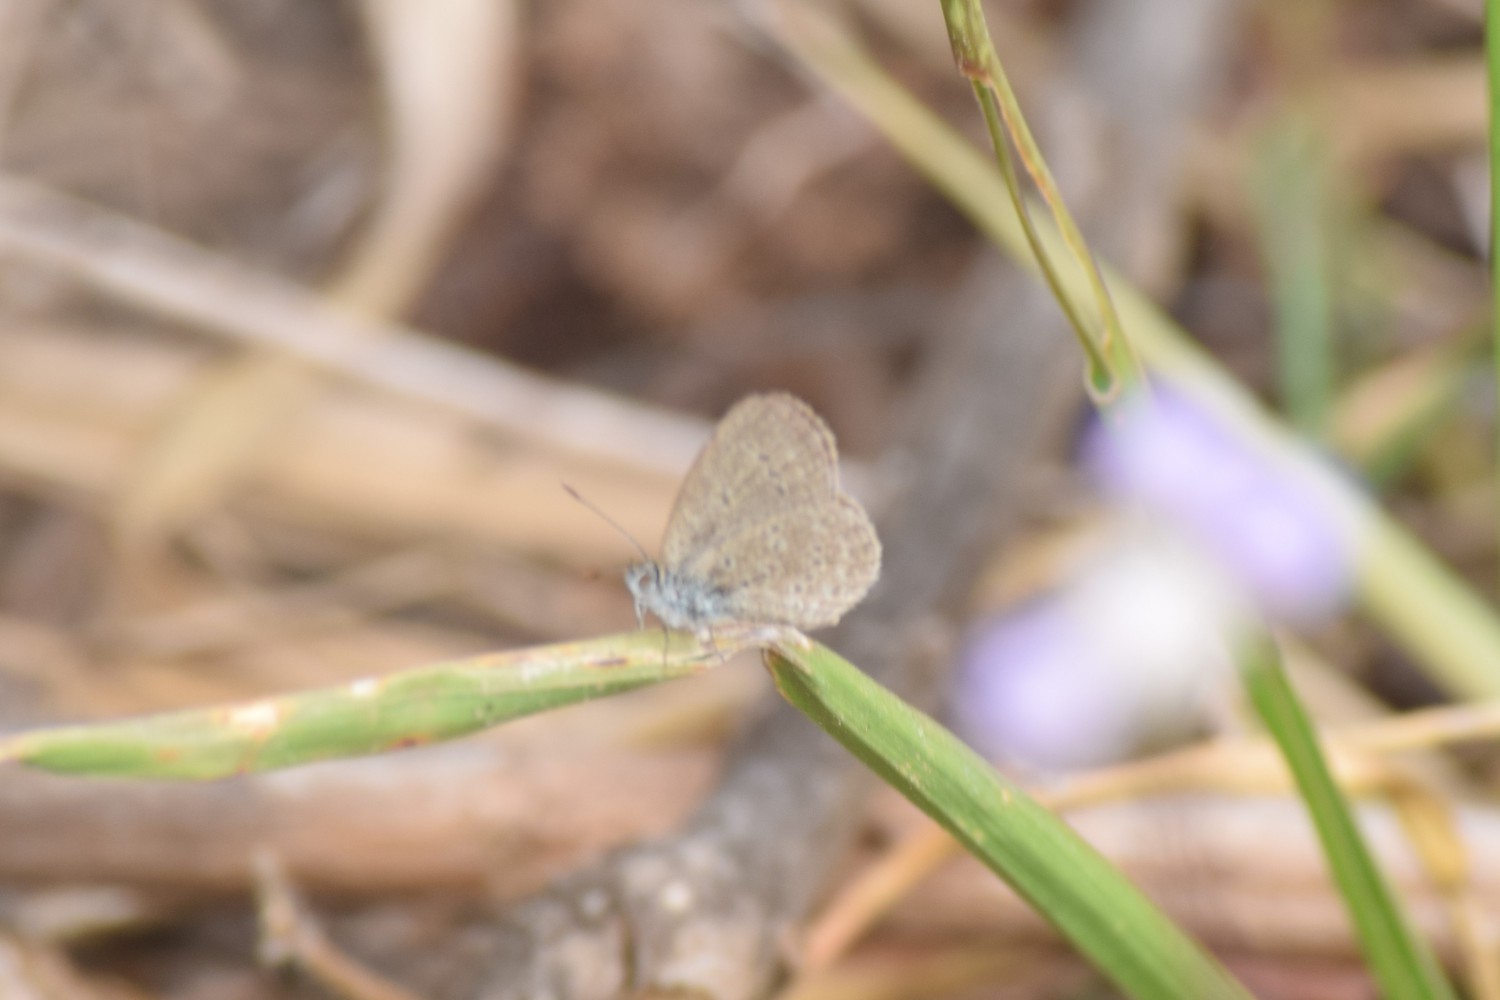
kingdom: Animalia
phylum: Arthropoda
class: Insecta
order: Lepidoptera
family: Lycaenidae
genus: Zizina
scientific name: Zizina otis
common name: Lesser grass blue
